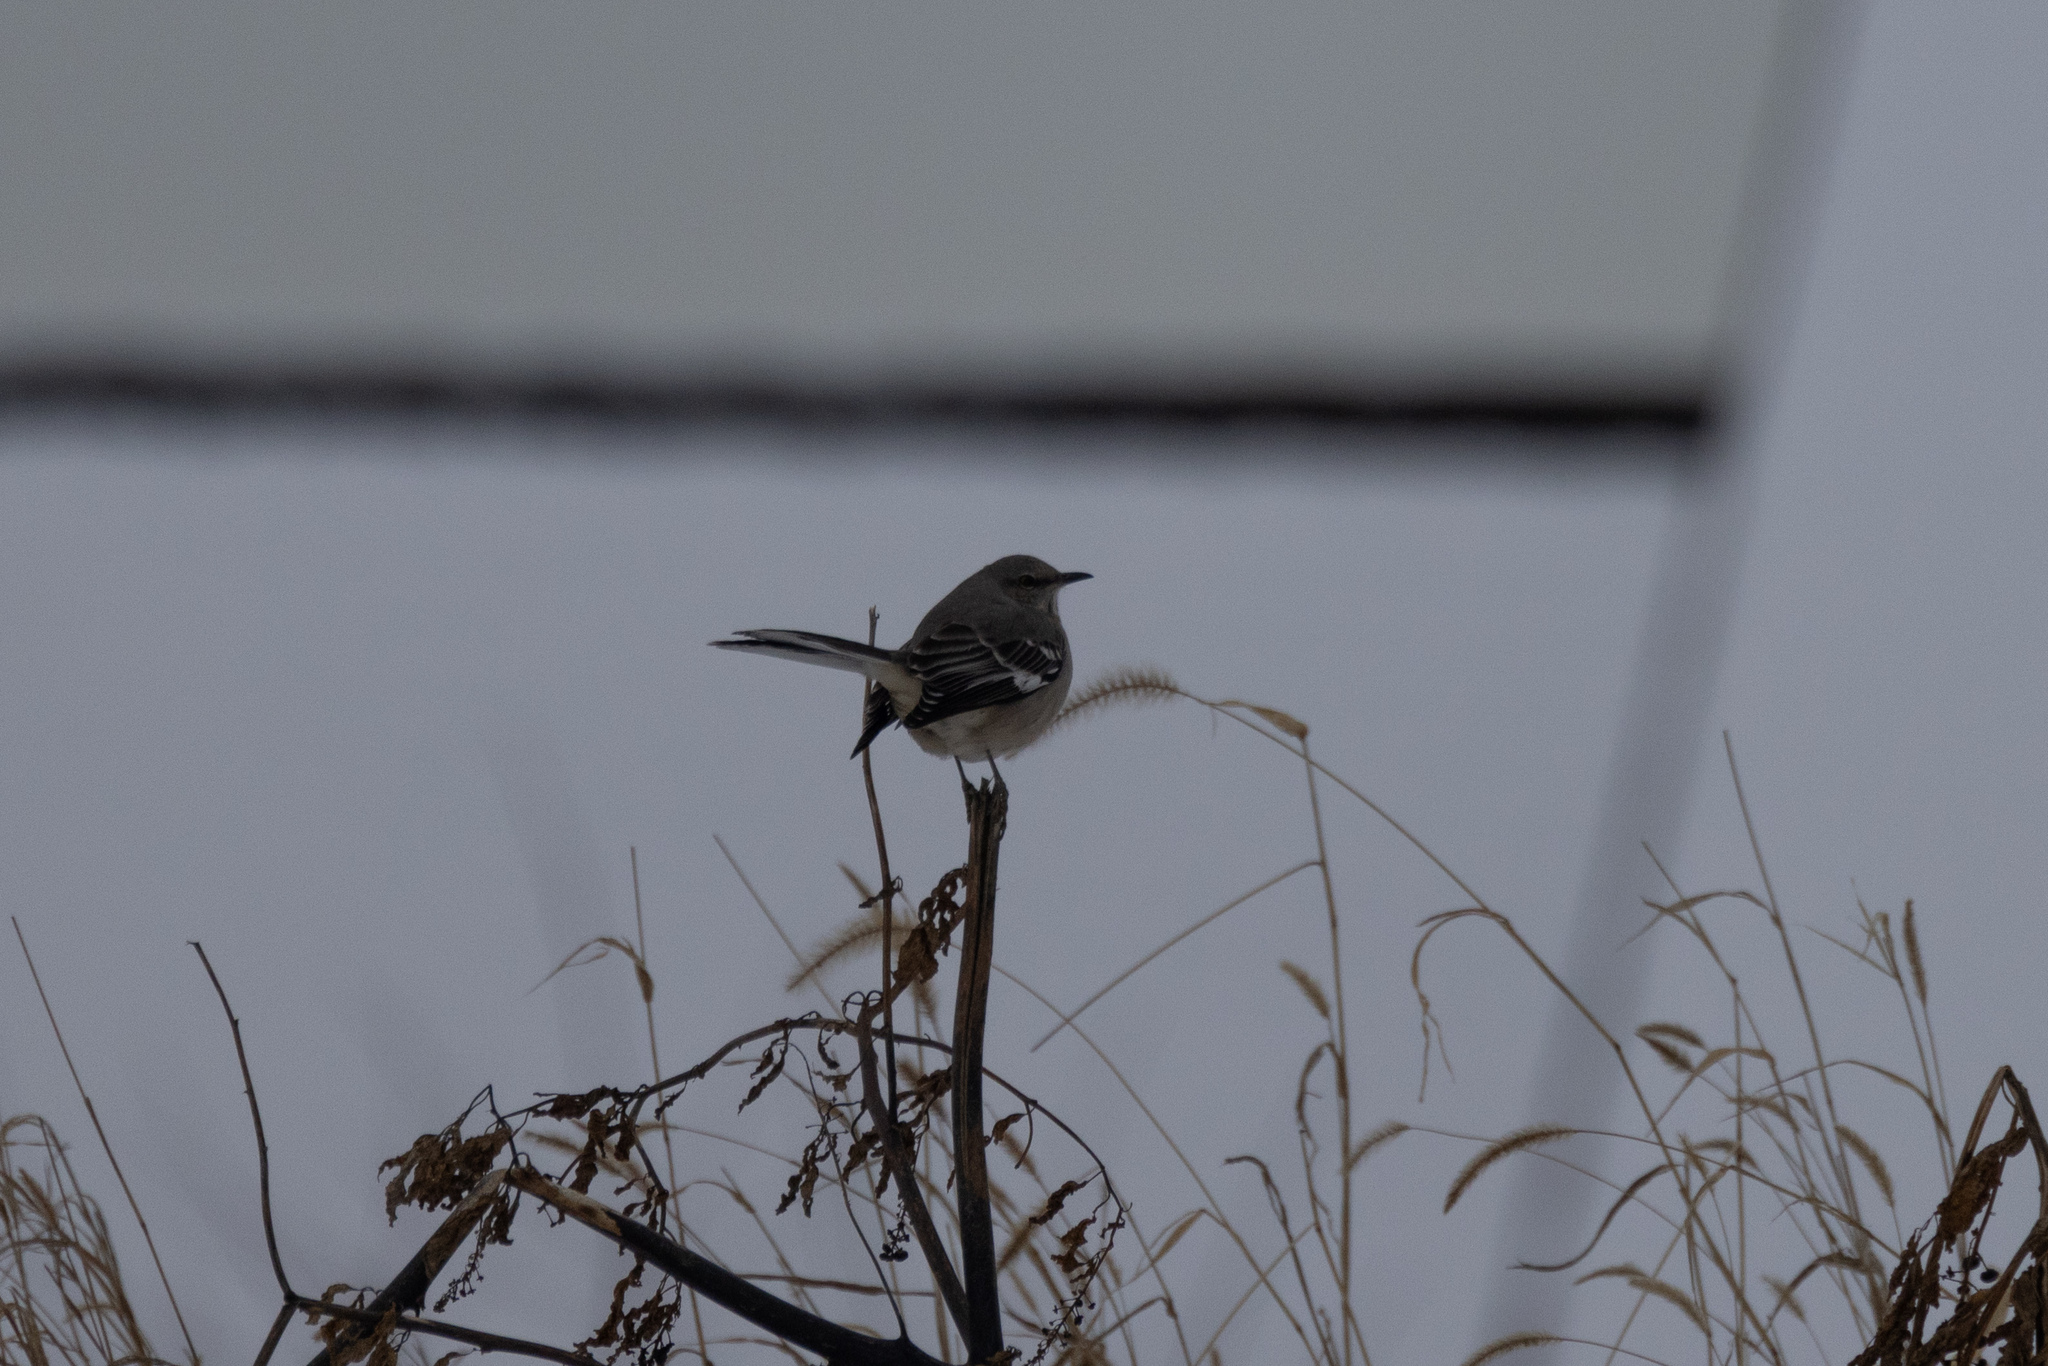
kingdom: Animalia
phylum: Chordata
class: Aves
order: Passeriformes
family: Mimidae
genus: Mimus
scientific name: Mimus polyglottos
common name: Northern mockingbird
